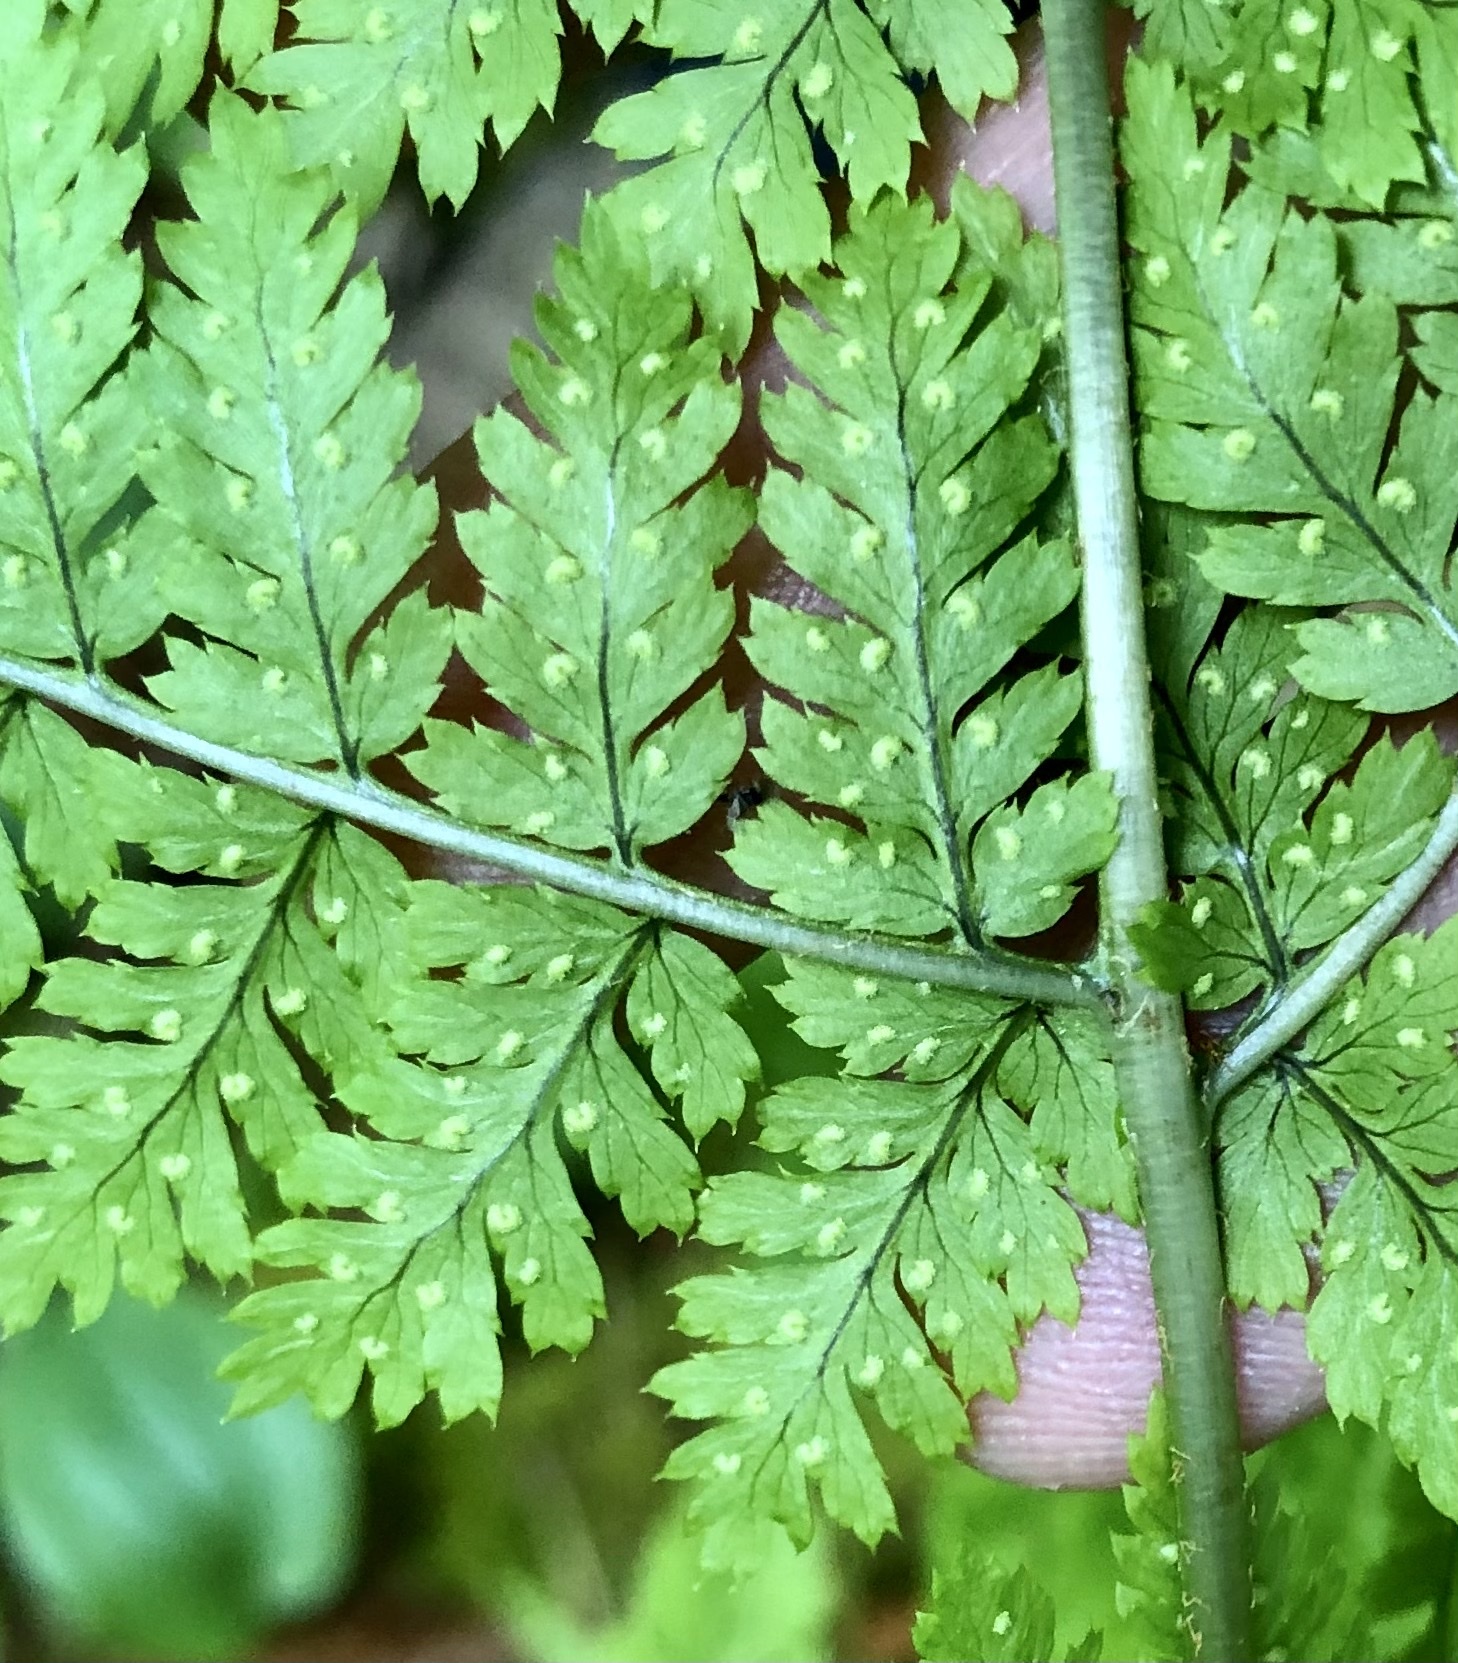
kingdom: Plantae
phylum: Tracheophyta
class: Polypodiopsida
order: Polypodiales
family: Dryopteridaceae
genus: Dryopteris
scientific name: Dryopteris campyloptera
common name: Mountain wood fern
